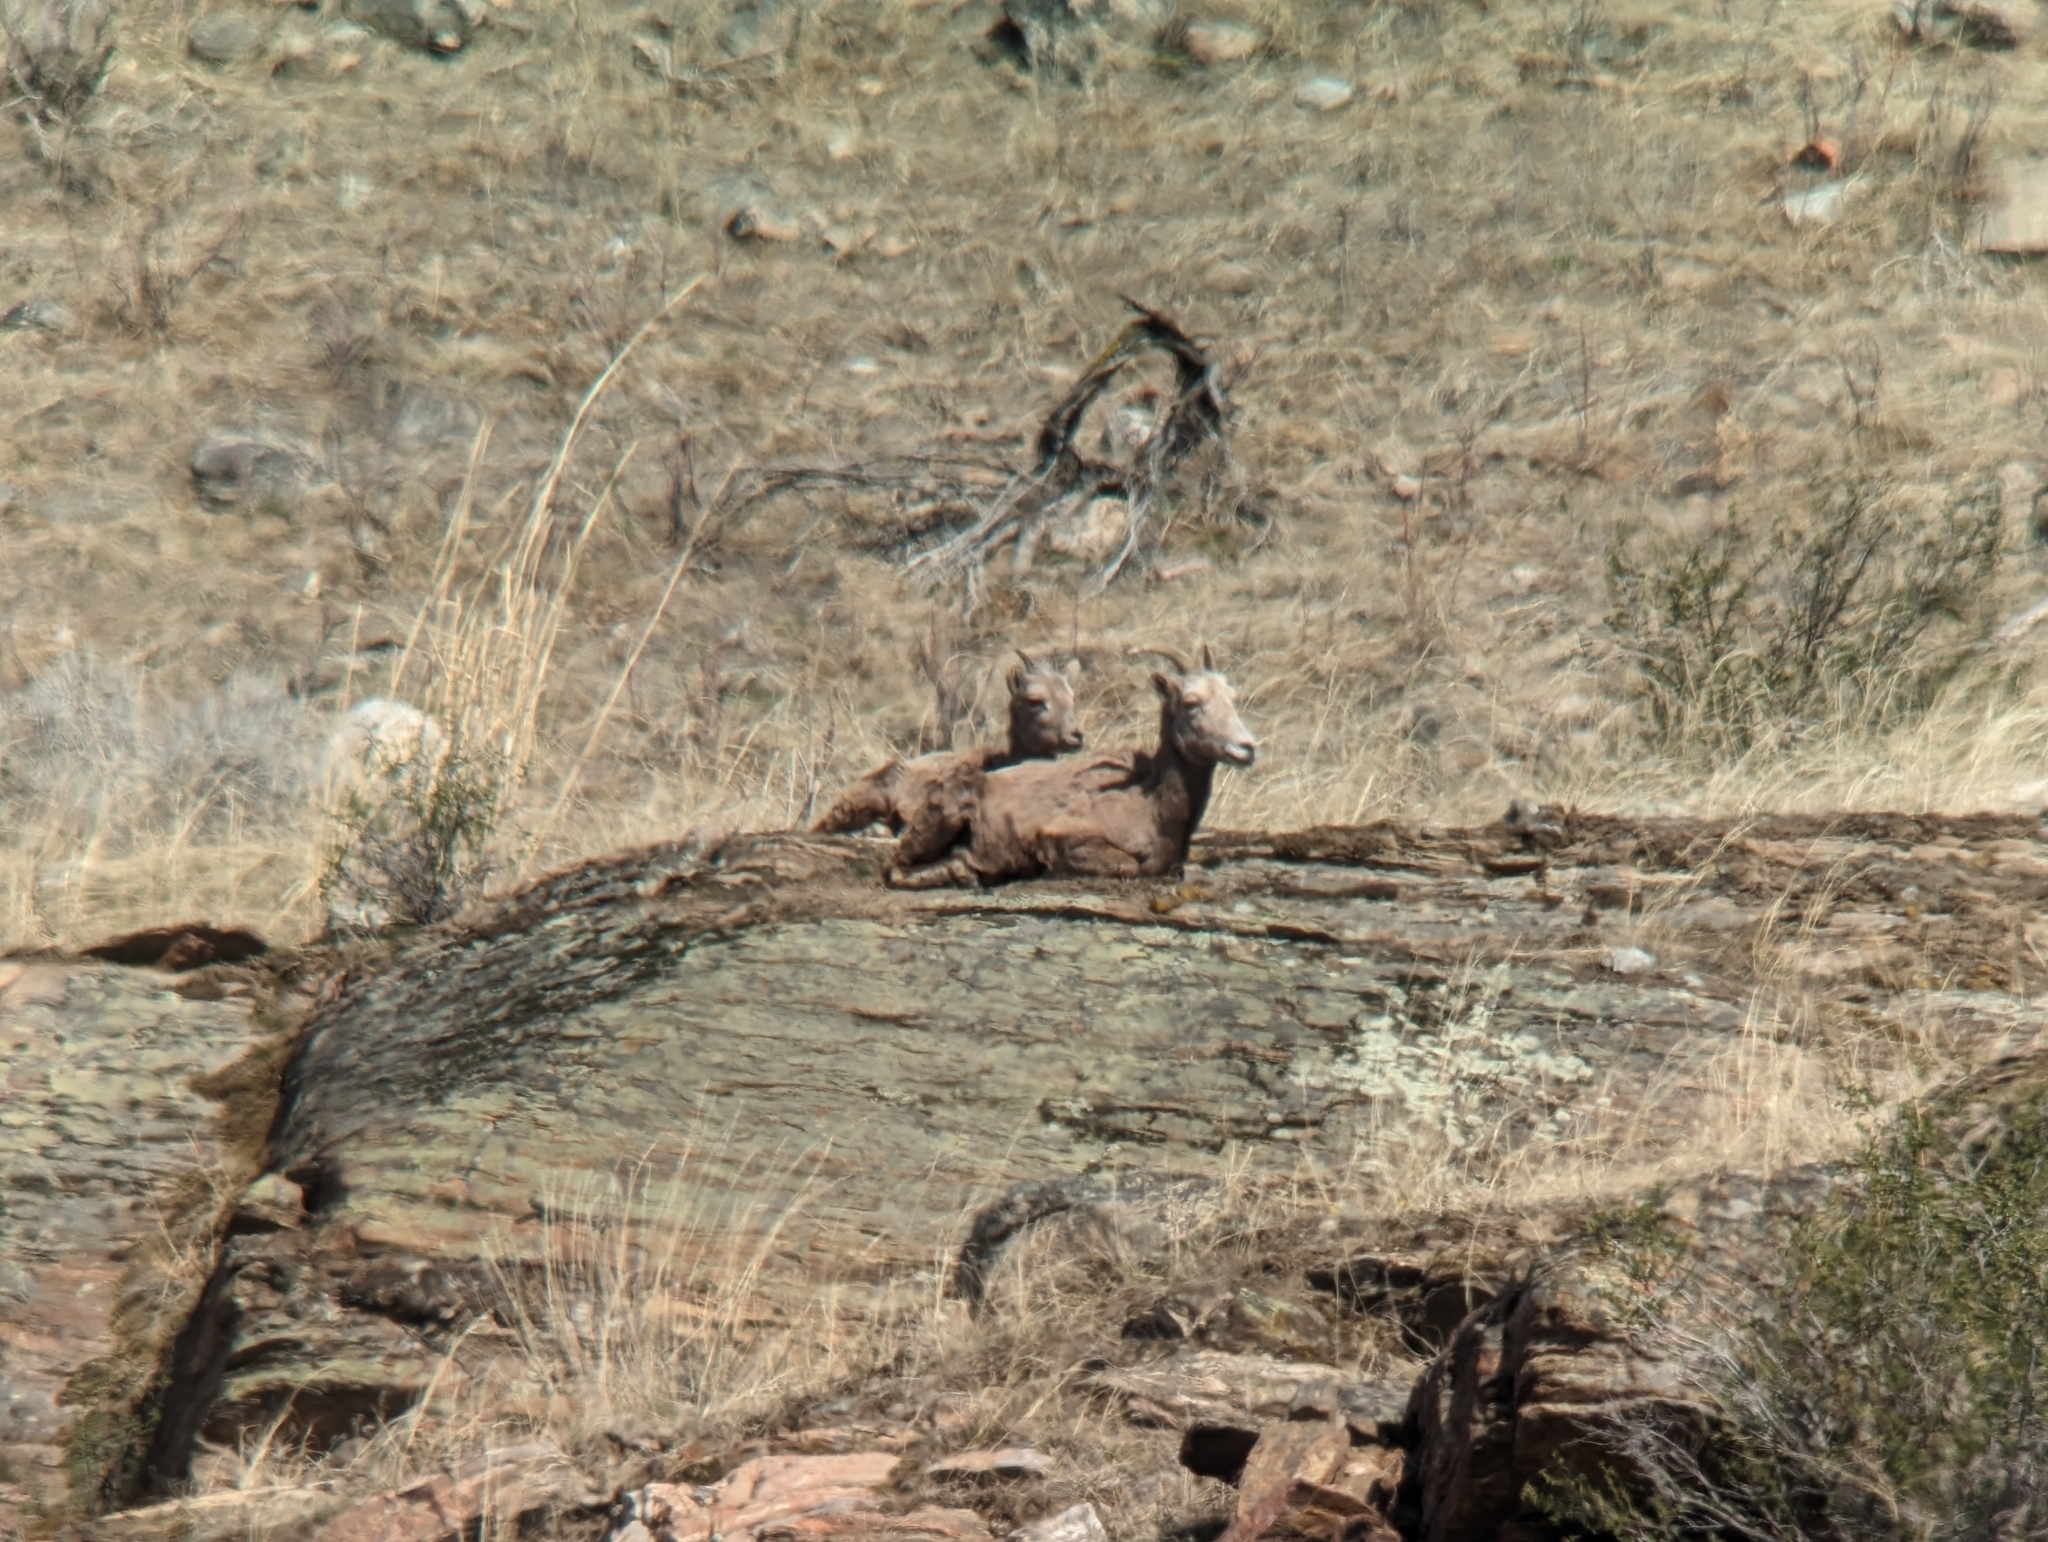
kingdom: Animalia
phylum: Chordata
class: Mammalia
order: Artiodactyla
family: Bovidae
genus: Ovis
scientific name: Ovis canadensis
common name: Bighorn sheep
